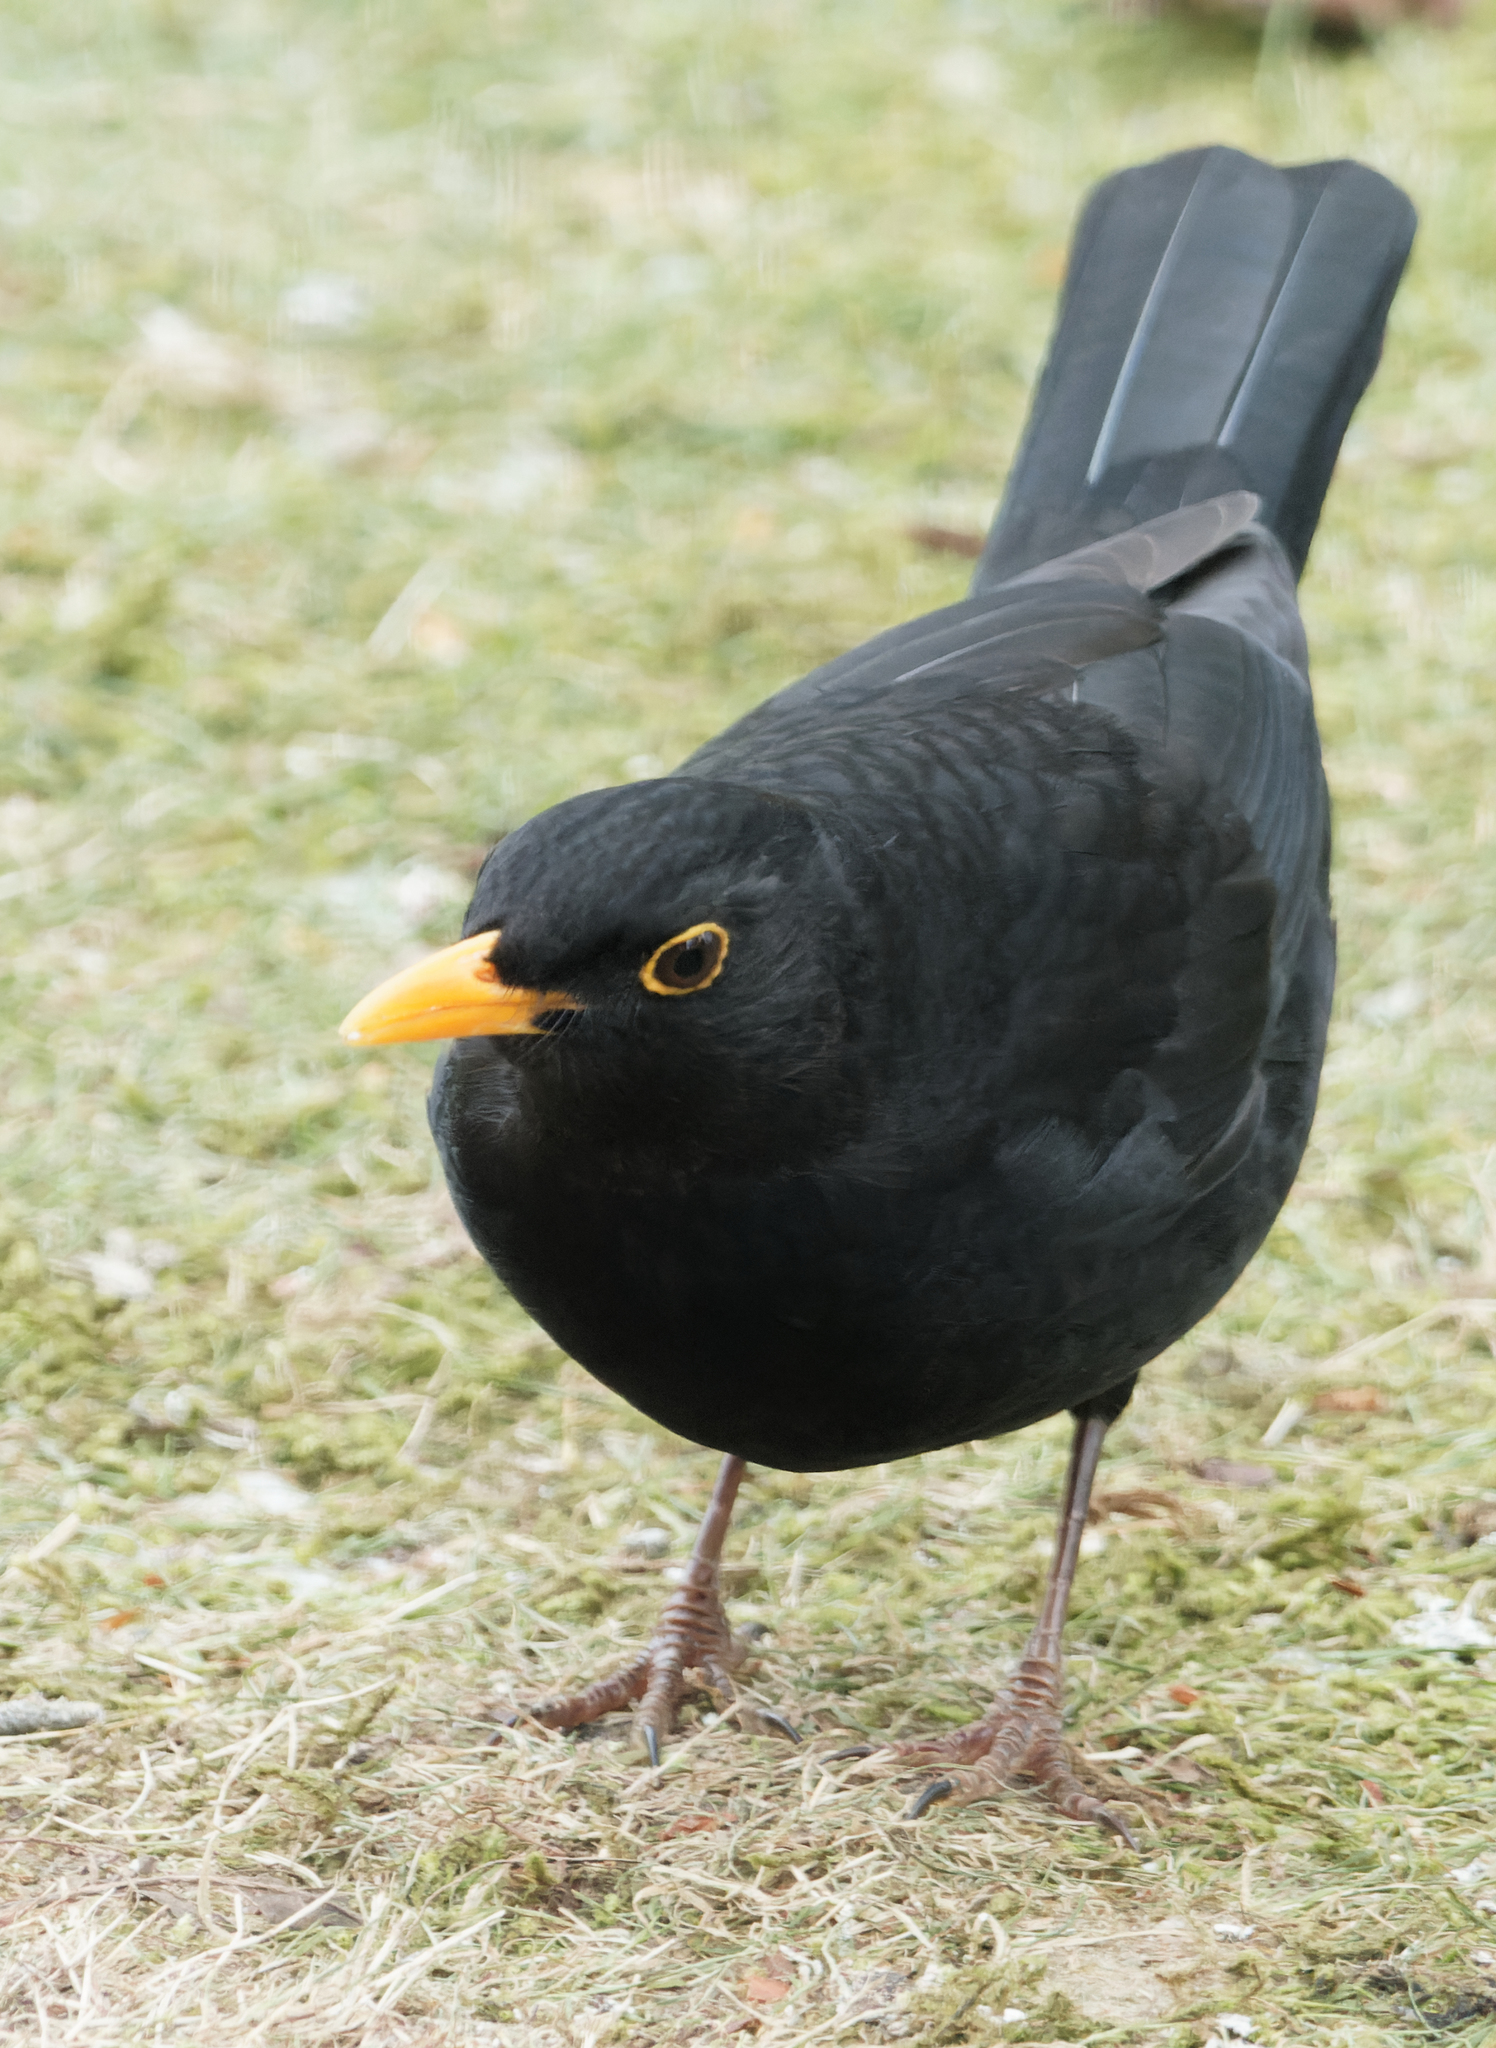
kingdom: Animalia
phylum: Chordata
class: Aves
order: Passeriformes
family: Turdidae
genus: Turdus
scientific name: Turdus merula
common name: Common blackbird
